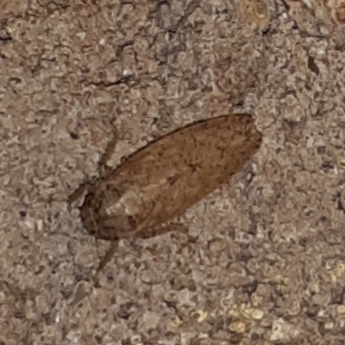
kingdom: Animalia
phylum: Arthropoda
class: Insecta
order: Hemiptera
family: Cicadellidae
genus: Curtara
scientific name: Curtara insularis
